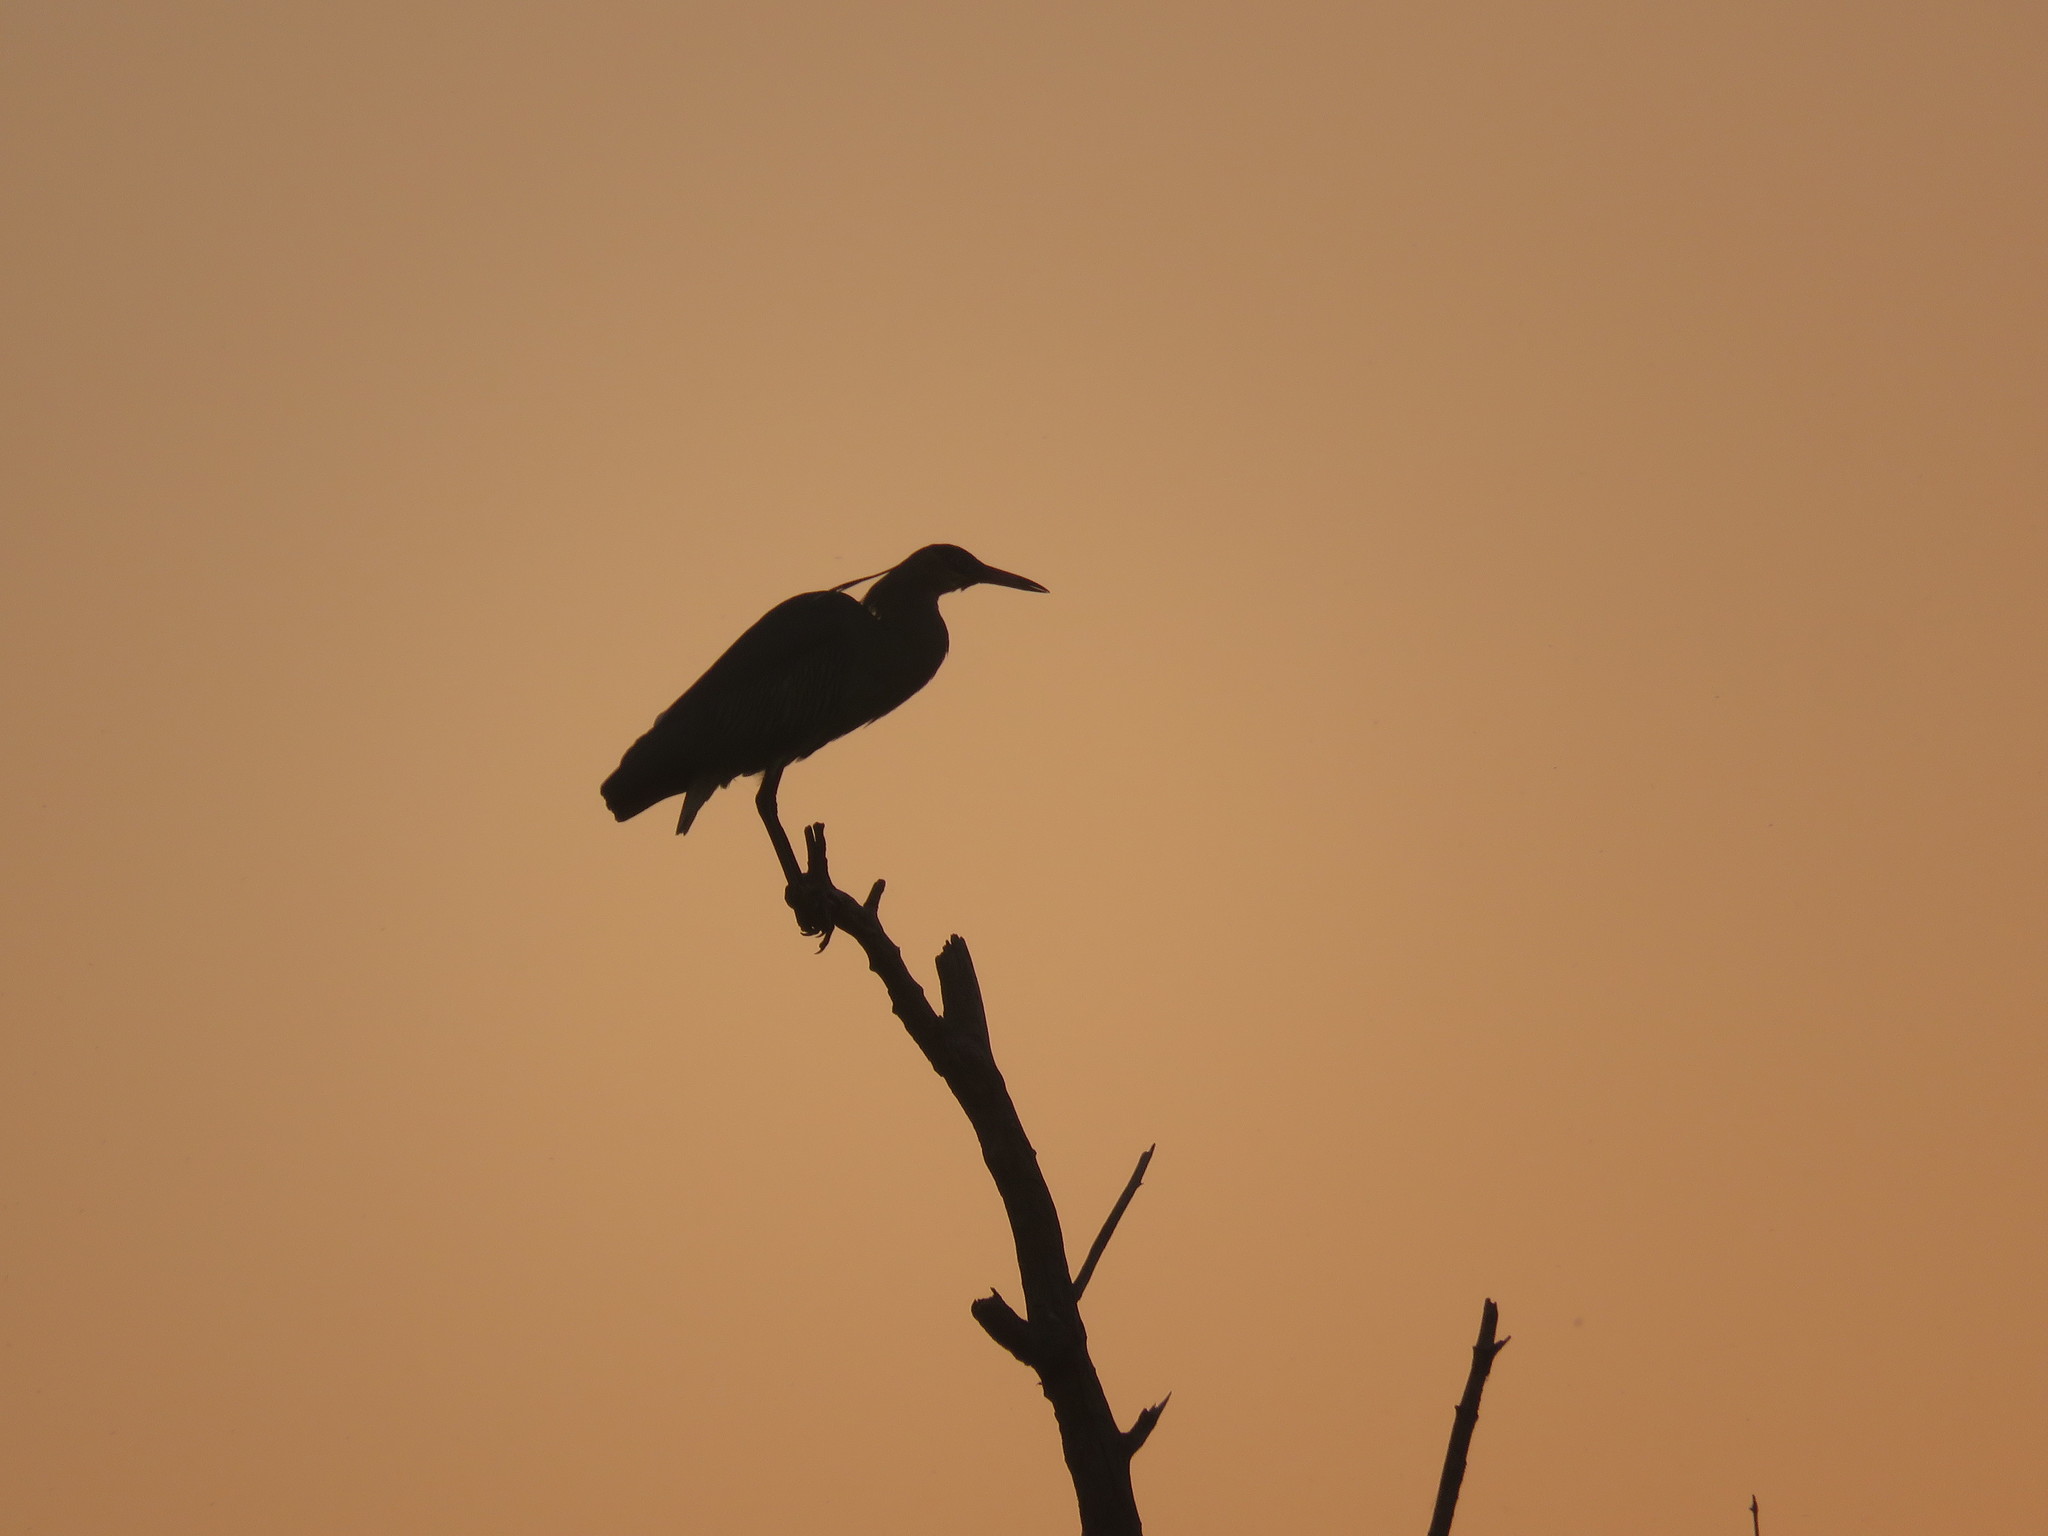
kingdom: Animalia
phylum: Chordata
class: Aves
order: Pelecaniformes
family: Ardeidae
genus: Syrigma
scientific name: Syrigma sibilatrix
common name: Whistling heron
